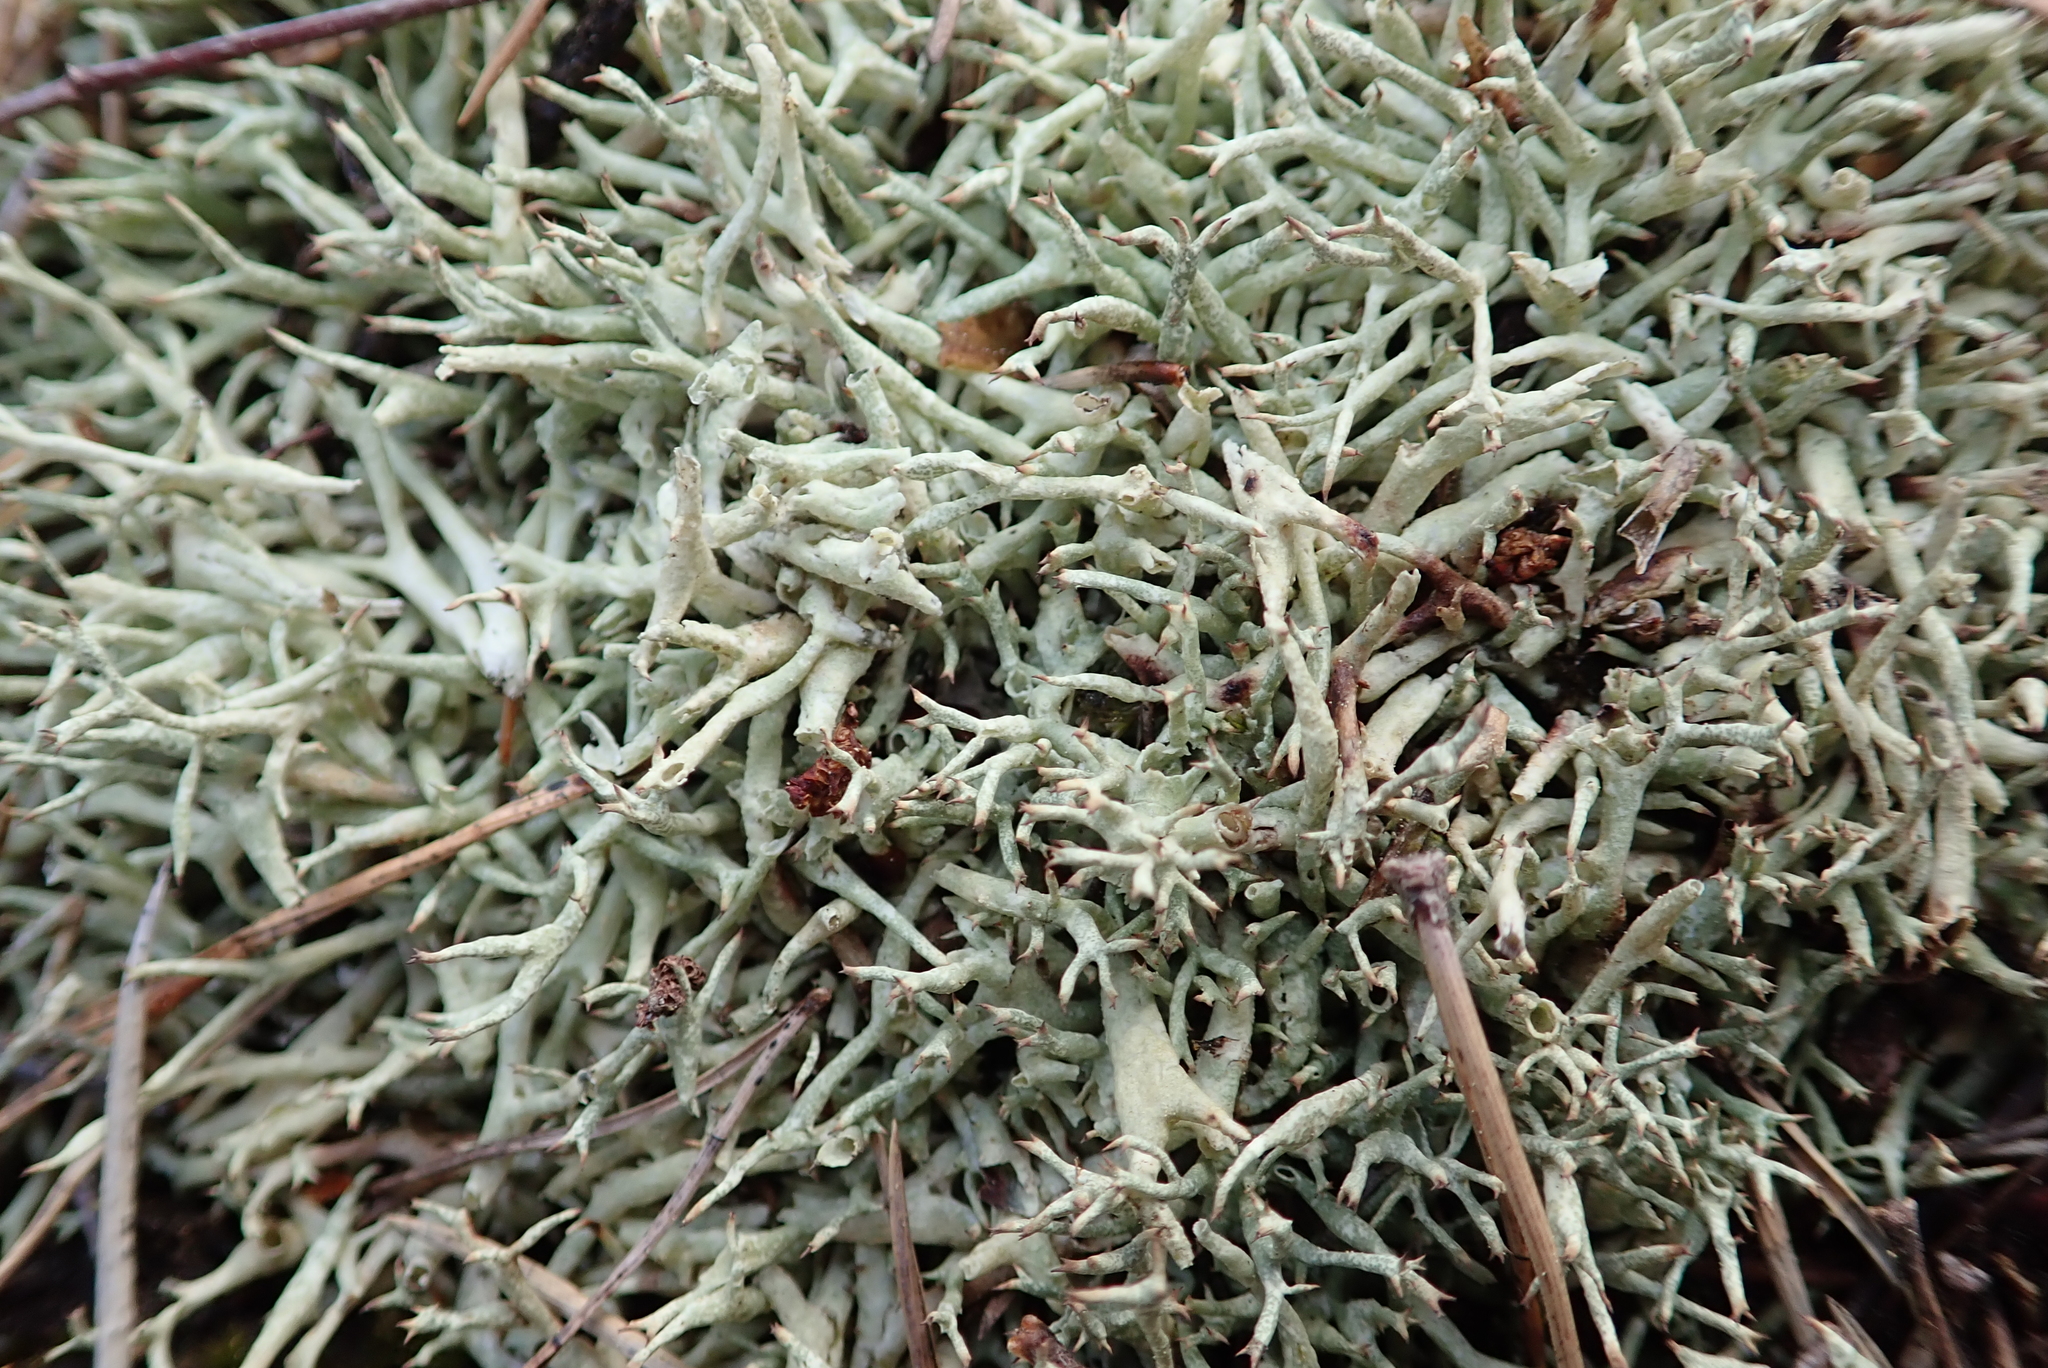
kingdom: Fungi
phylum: Ascomycota
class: Lecanoromycetes
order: Lecanorales
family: Cladoniaceae
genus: Cladonia
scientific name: Cladonia uncialis
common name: Thorn lichen
